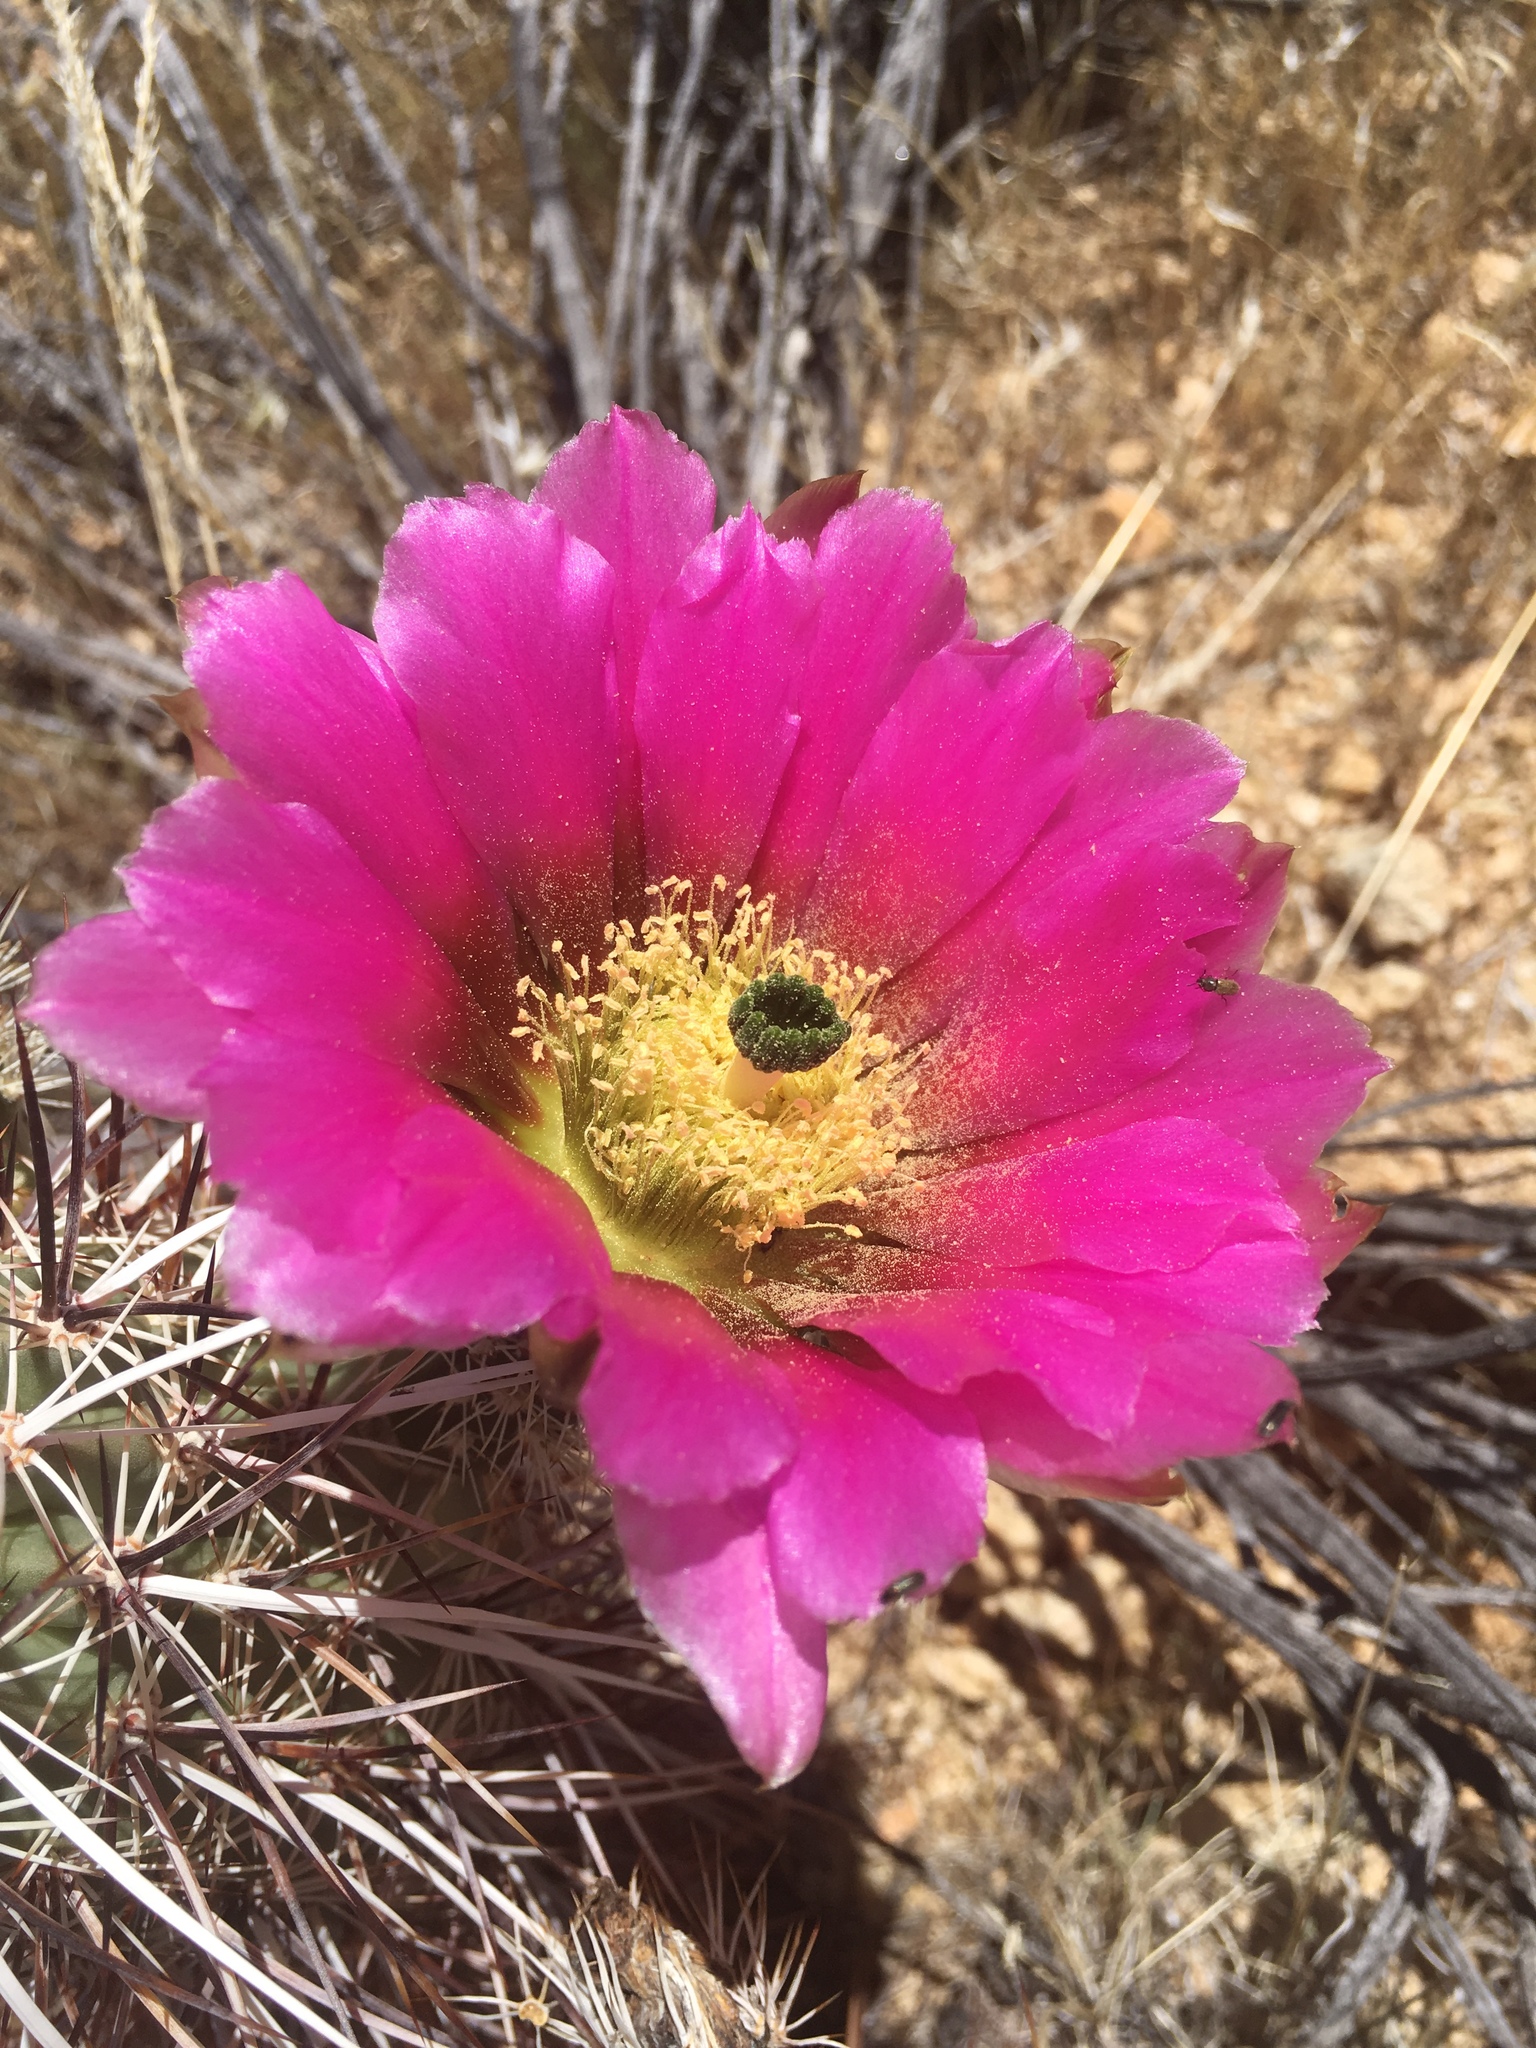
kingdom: Plantae
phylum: Tracheophyta
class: Magnoliopsida
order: Caryophyllales
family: Cactaceae
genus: Echinocereus
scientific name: Echinocereus engelmannii
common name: Engelmann's hedgehog cactus
